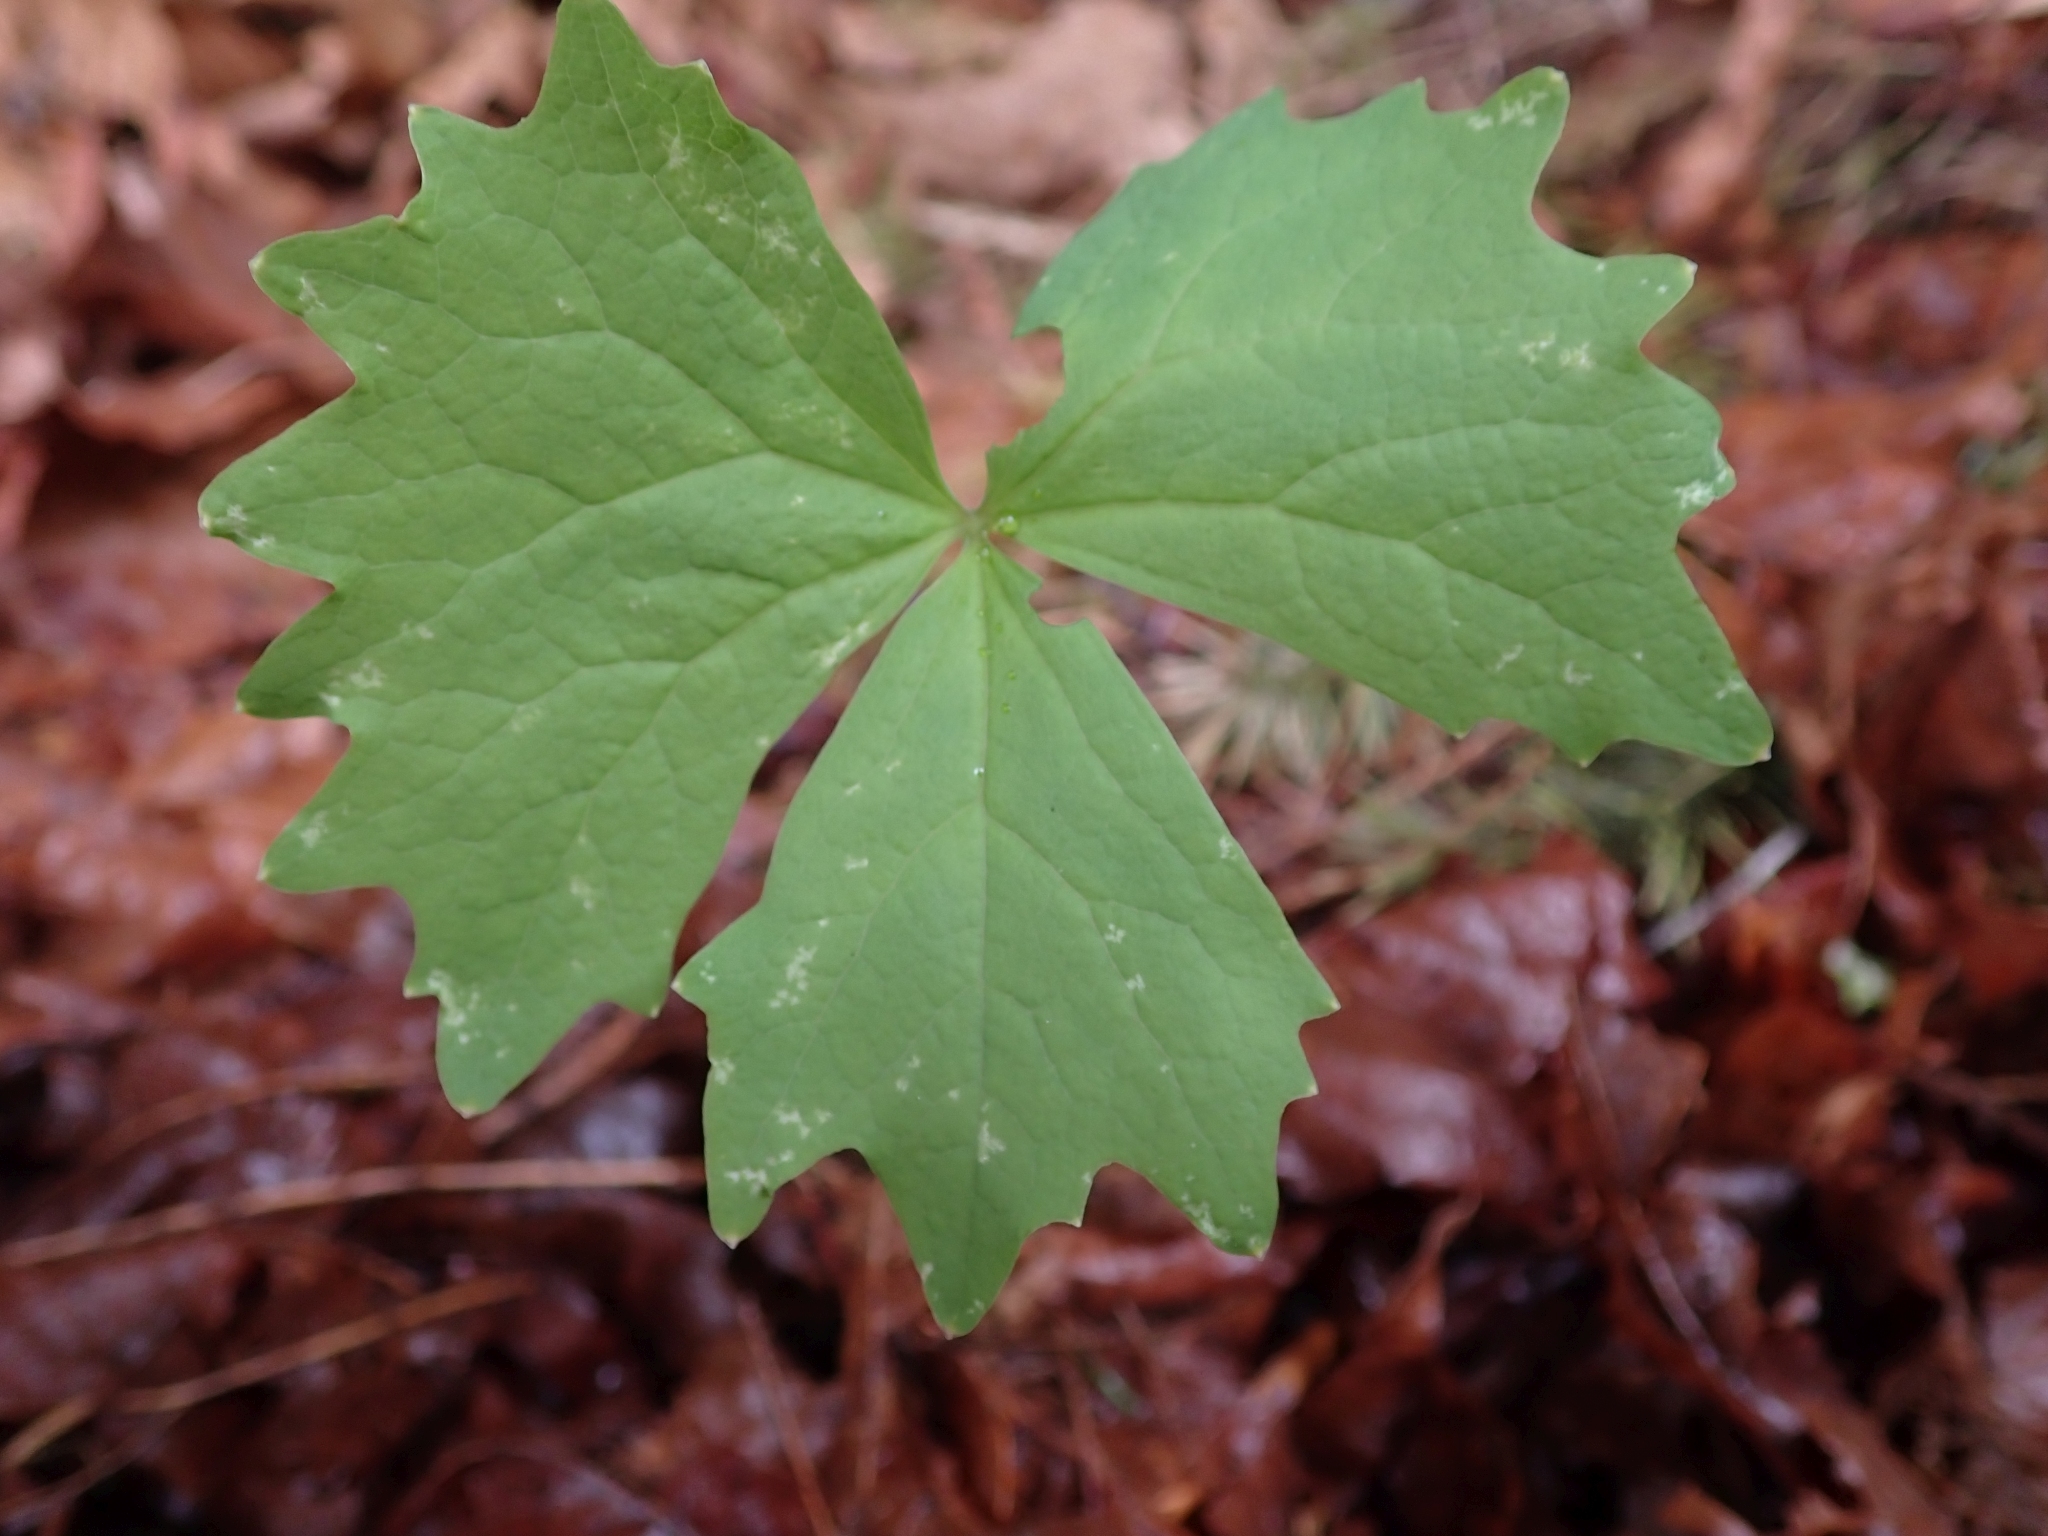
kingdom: Plantae
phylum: Tracheophyta
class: Magnoliopsida
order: Ranunculales
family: Berberidaceae
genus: Achlys
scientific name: Achlys triphylla
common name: Vanilla-leaf
